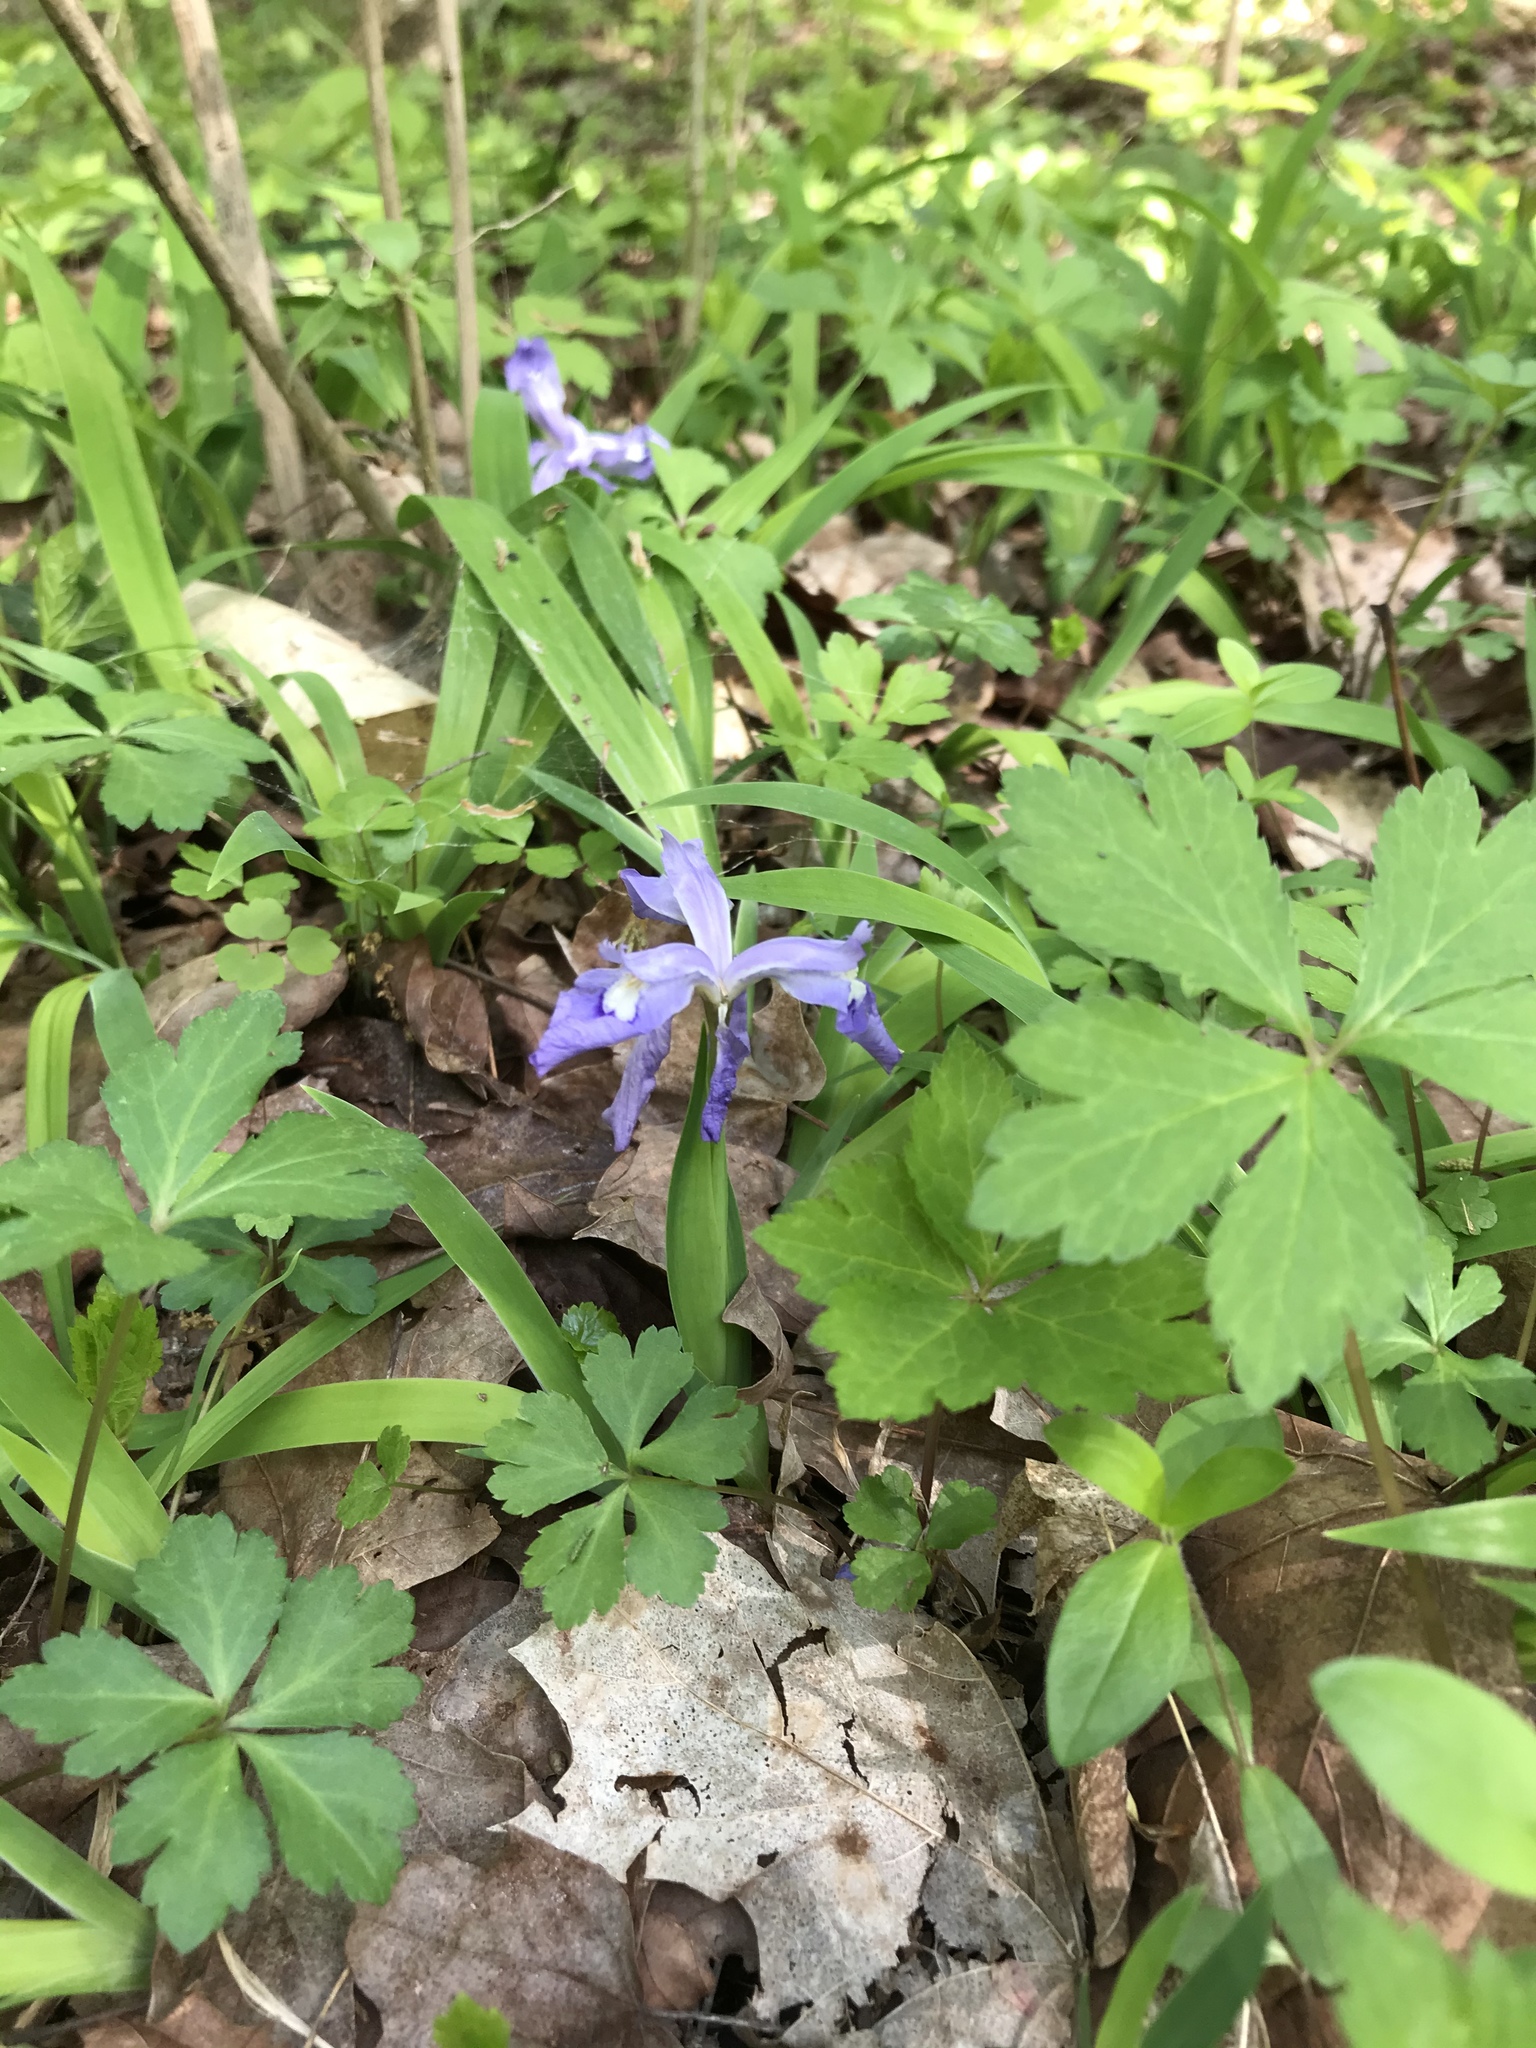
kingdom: Plantae
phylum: Tracheophyta
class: Liliopsida
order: Asparagales
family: Iridaceae
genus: Iris
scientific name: Iris cristata
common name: Crested iris
